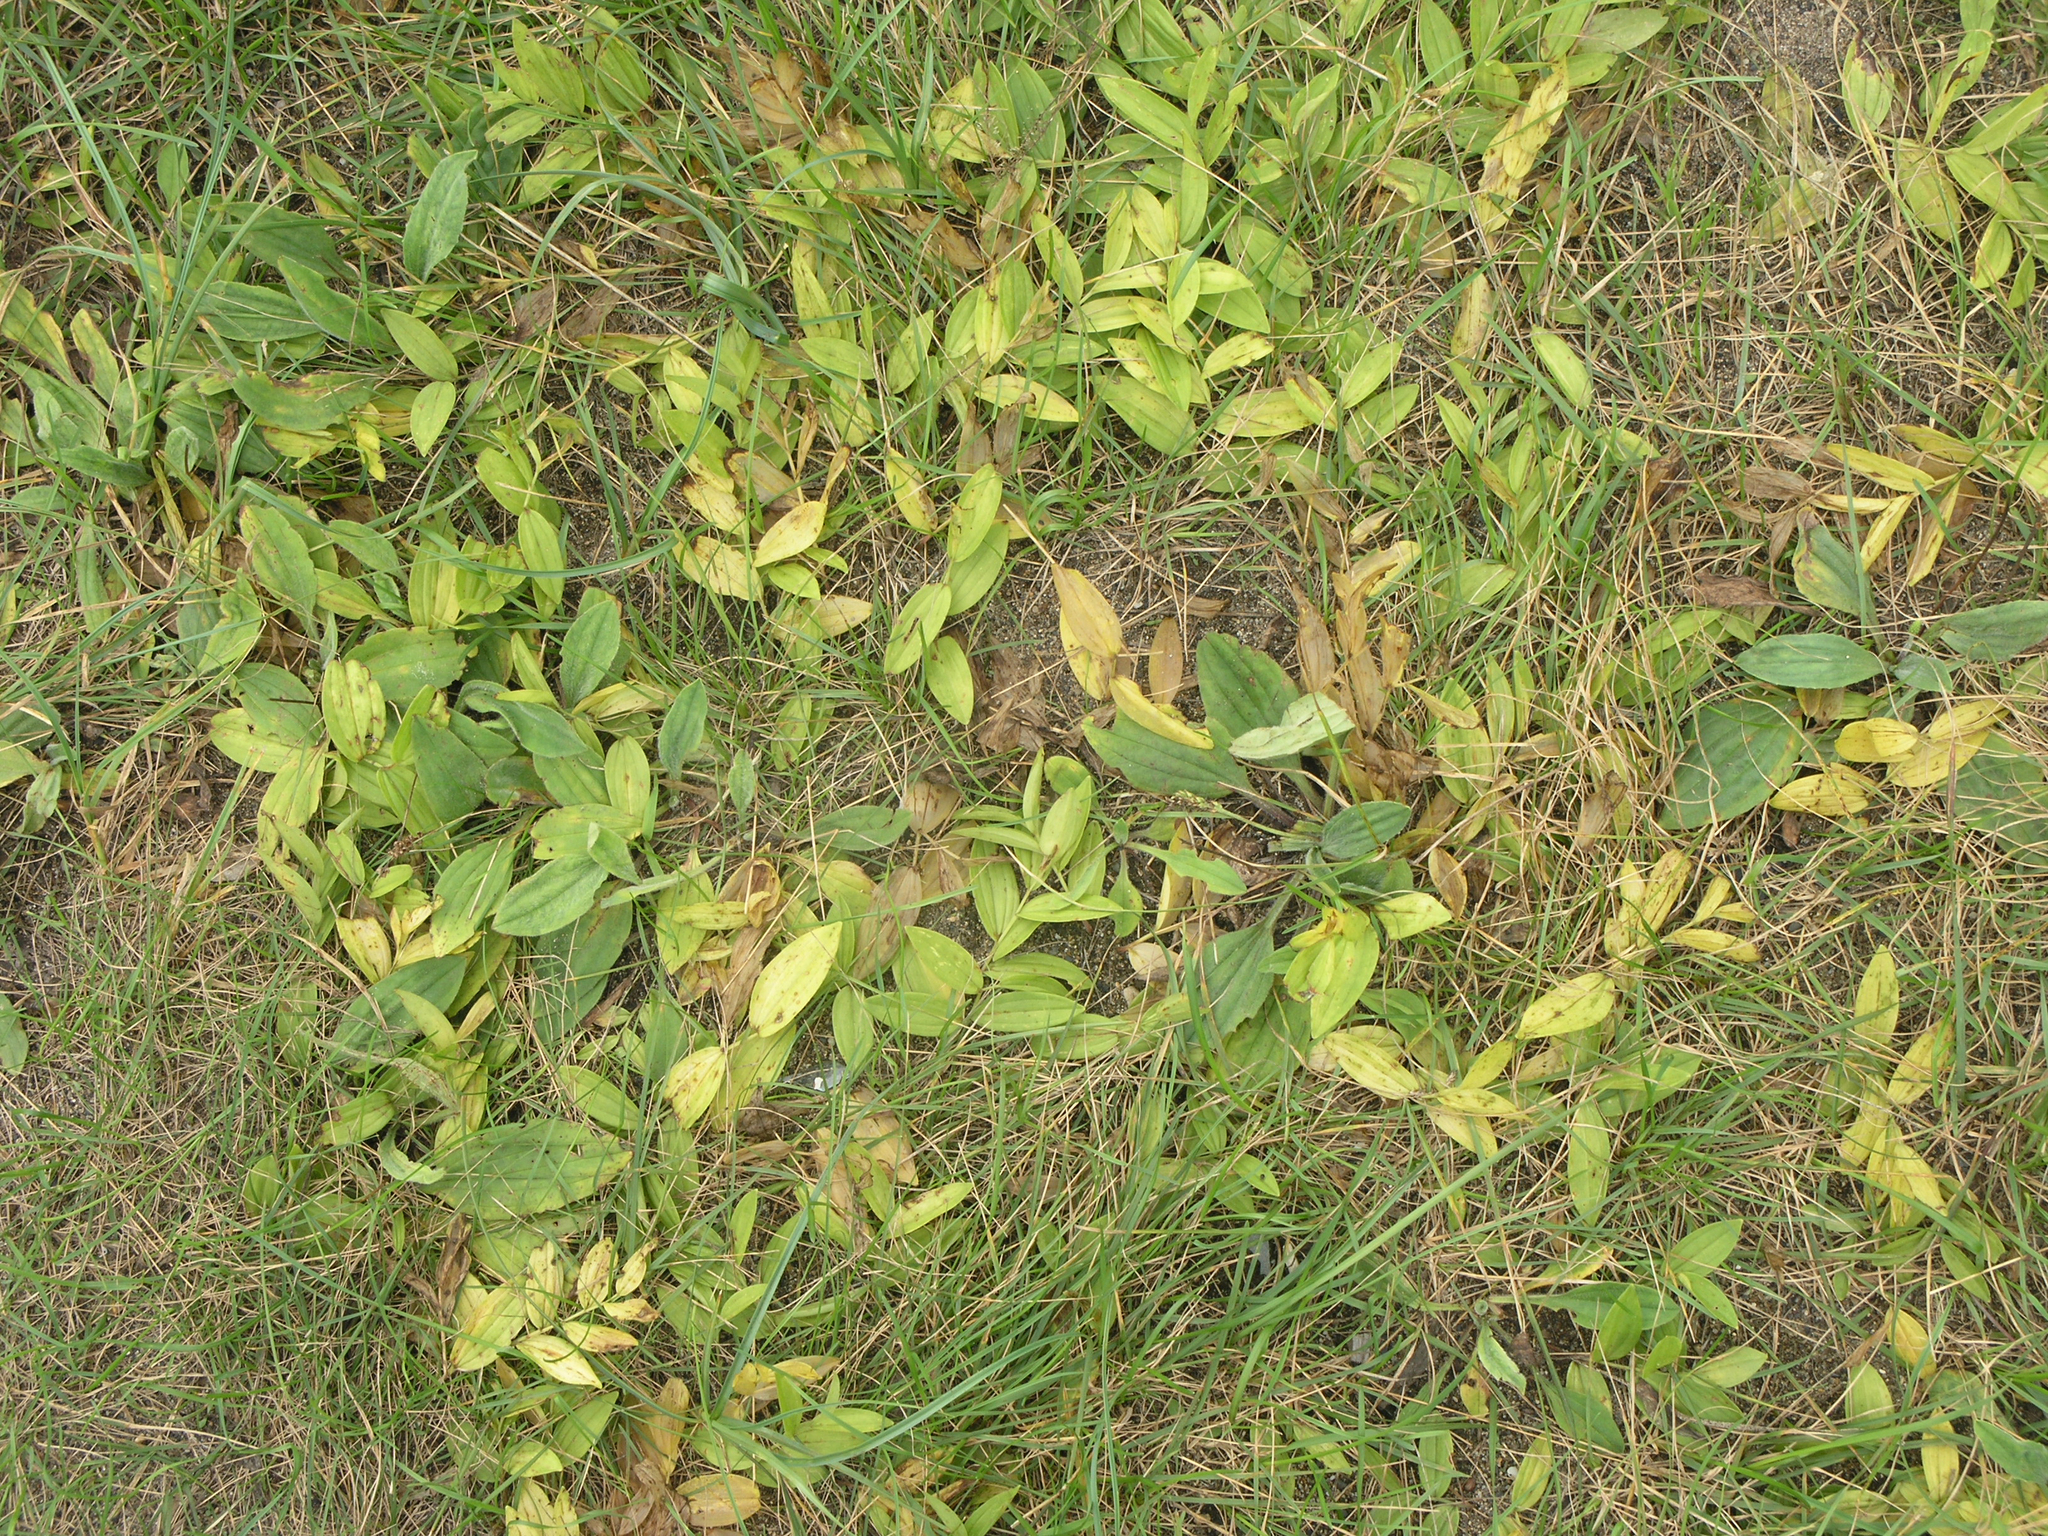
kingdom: Plantae
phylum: Tracheophyta
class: Liliopsida
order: Asparagales
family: Asparagaceae
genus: Polygonatum
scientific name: Polygonatum humile
